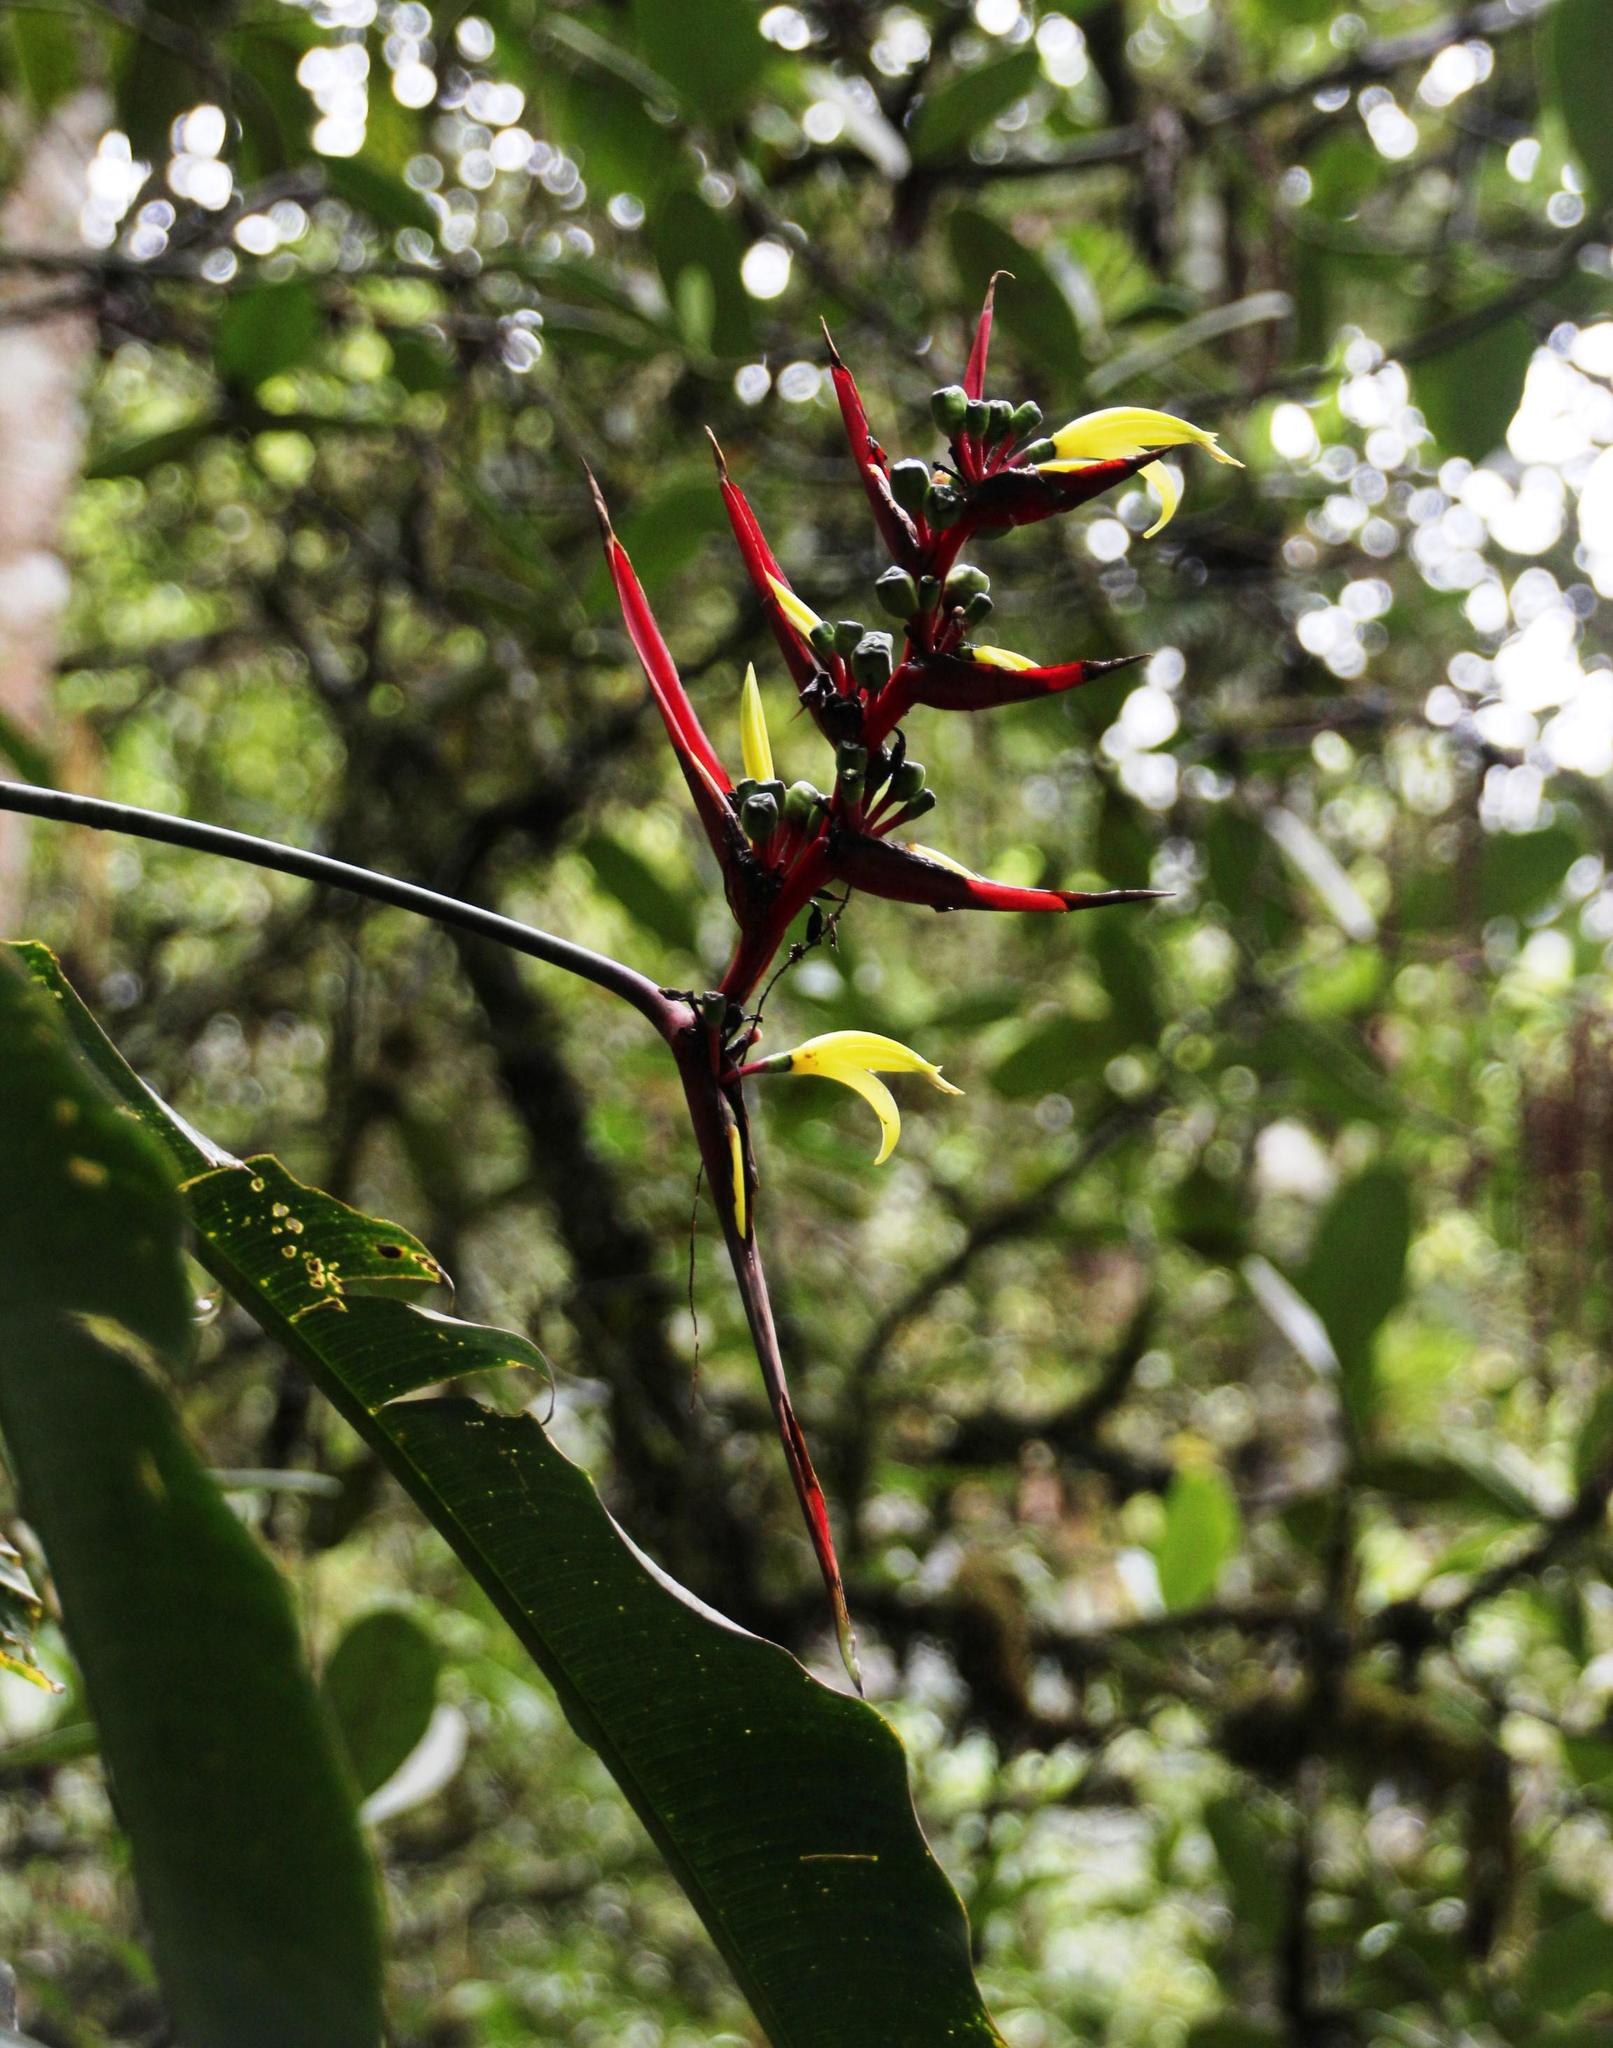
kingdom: Plantae
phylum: Tracheophyta
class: Liliopsida
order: Zingiberales
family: Heliconiaceae
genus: Heliconia
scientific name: Heliconia subulata
